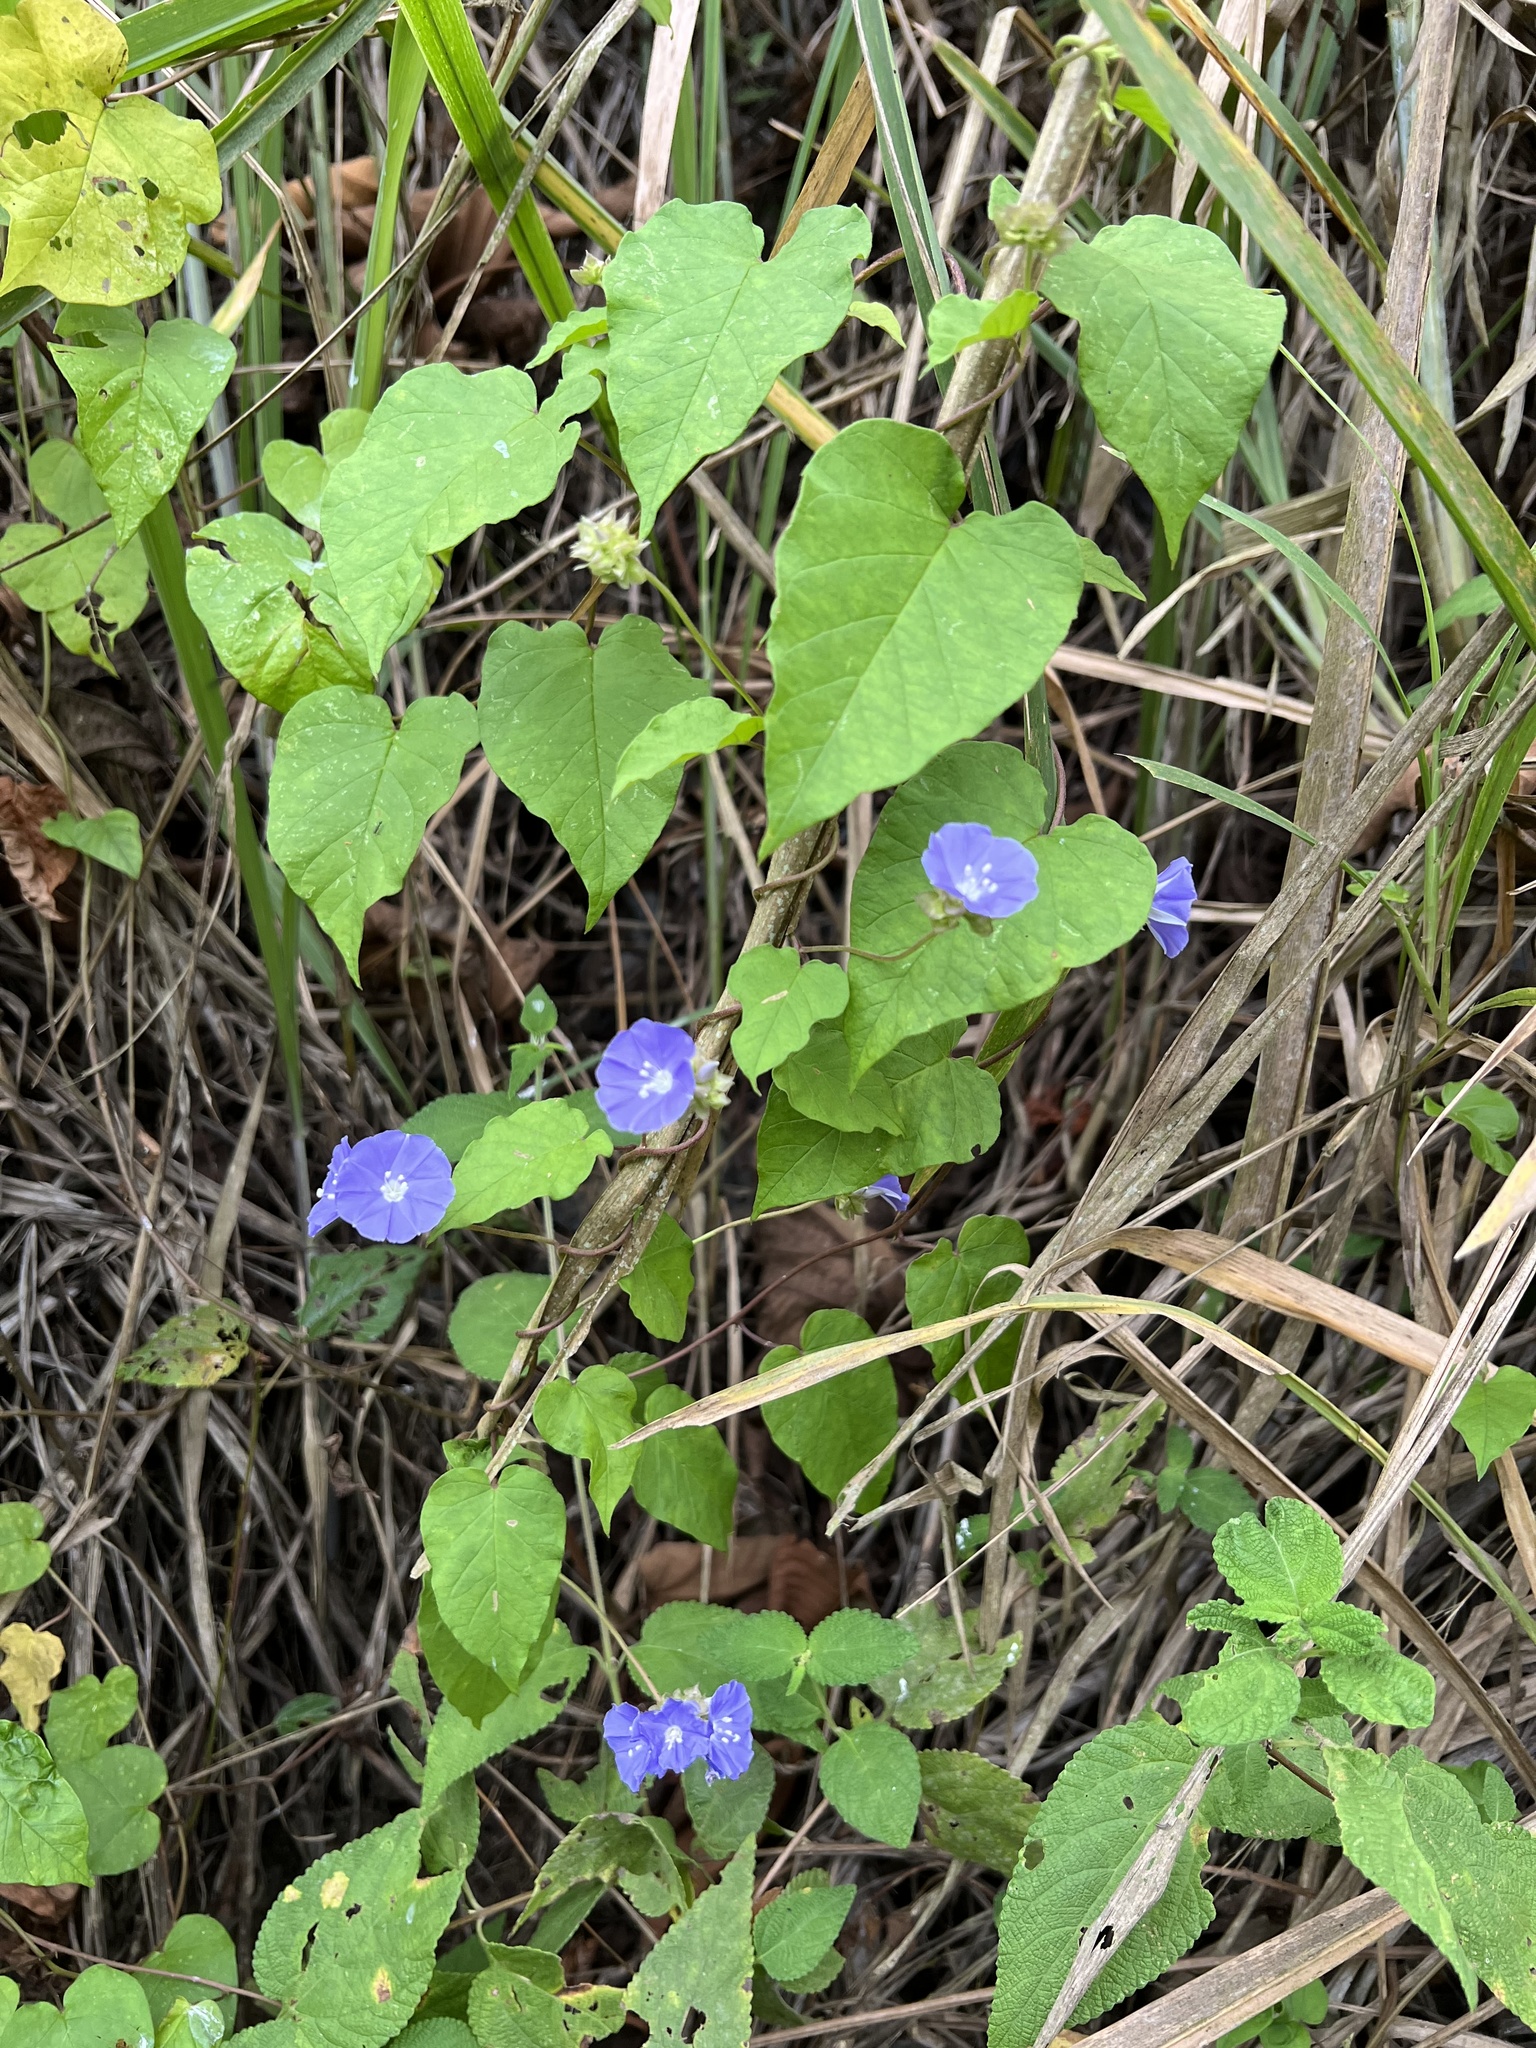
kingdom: Plantae
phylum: Tracheophyta
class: Magnoliopsida
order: Solanales
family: Convolvulaceae
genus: Jacquemontia
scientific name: Jacquemontia pentanthos
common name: Skyblue clustervine
